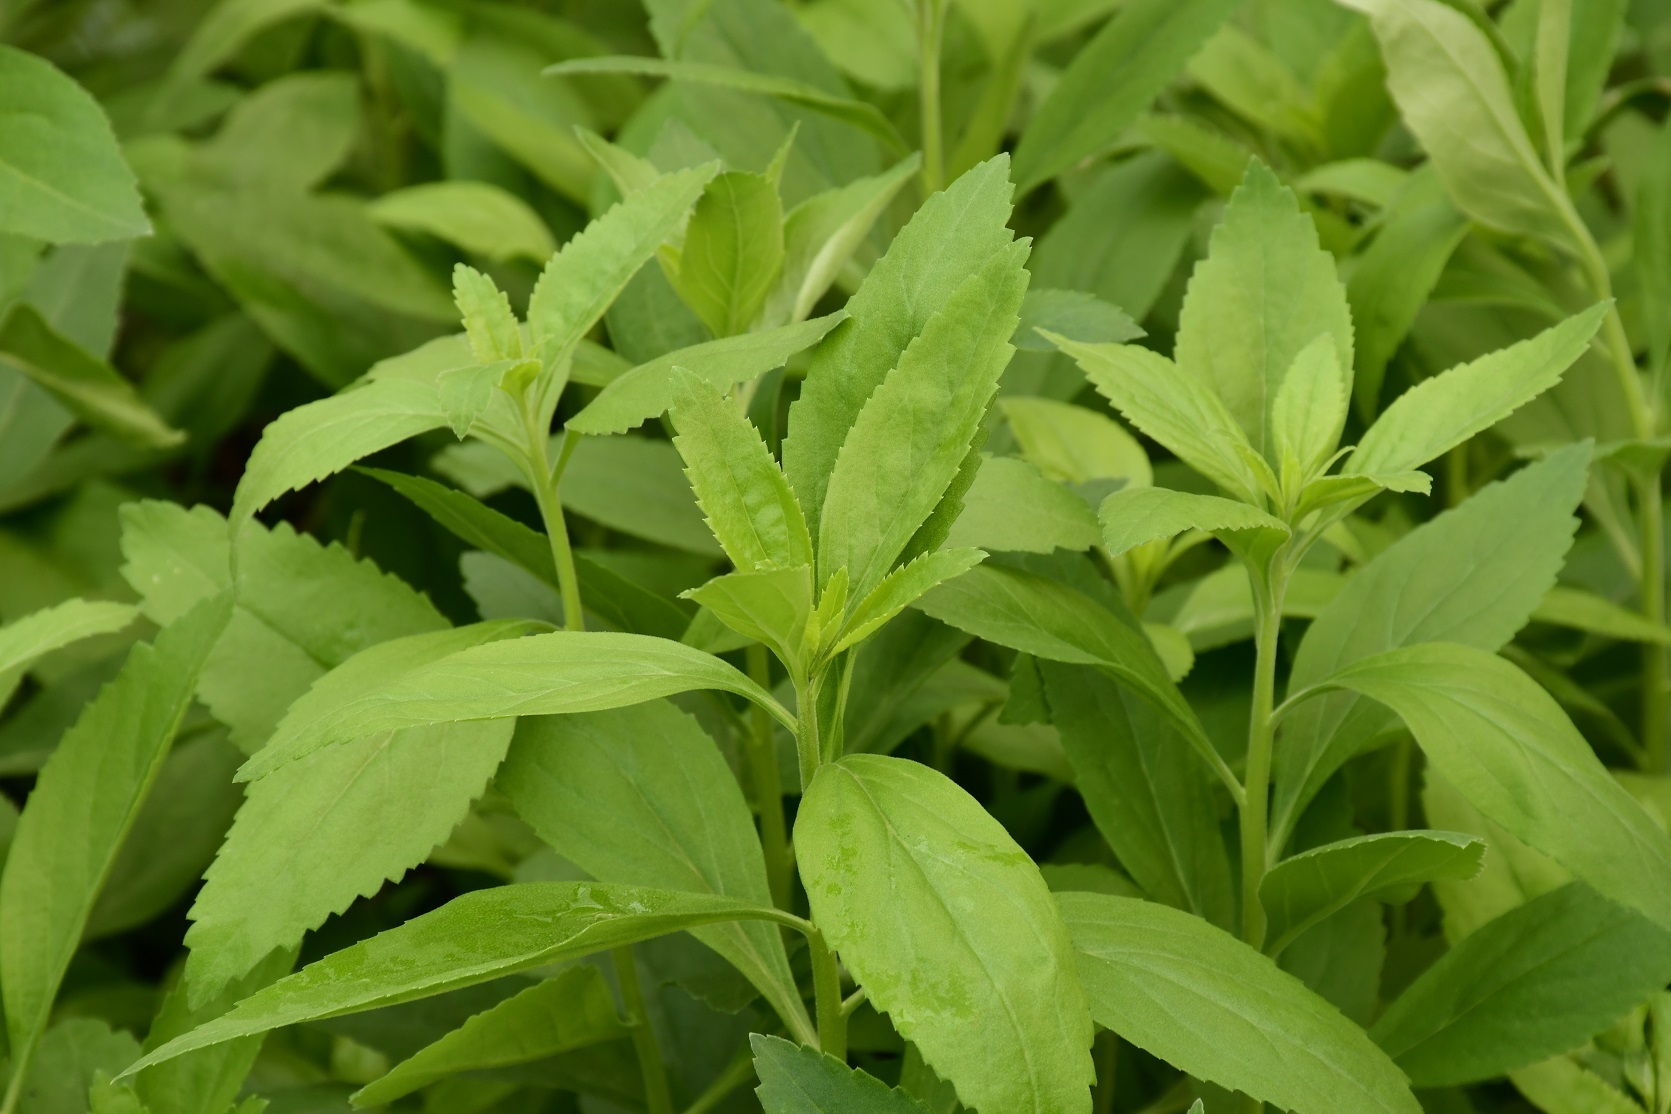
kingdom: Plantae
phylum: Tracheophyta
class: Magnoliopsida
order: Lamiales
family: Scrophulariaceae
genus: Eremogeton
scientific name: Eremogeton grandiflorus
